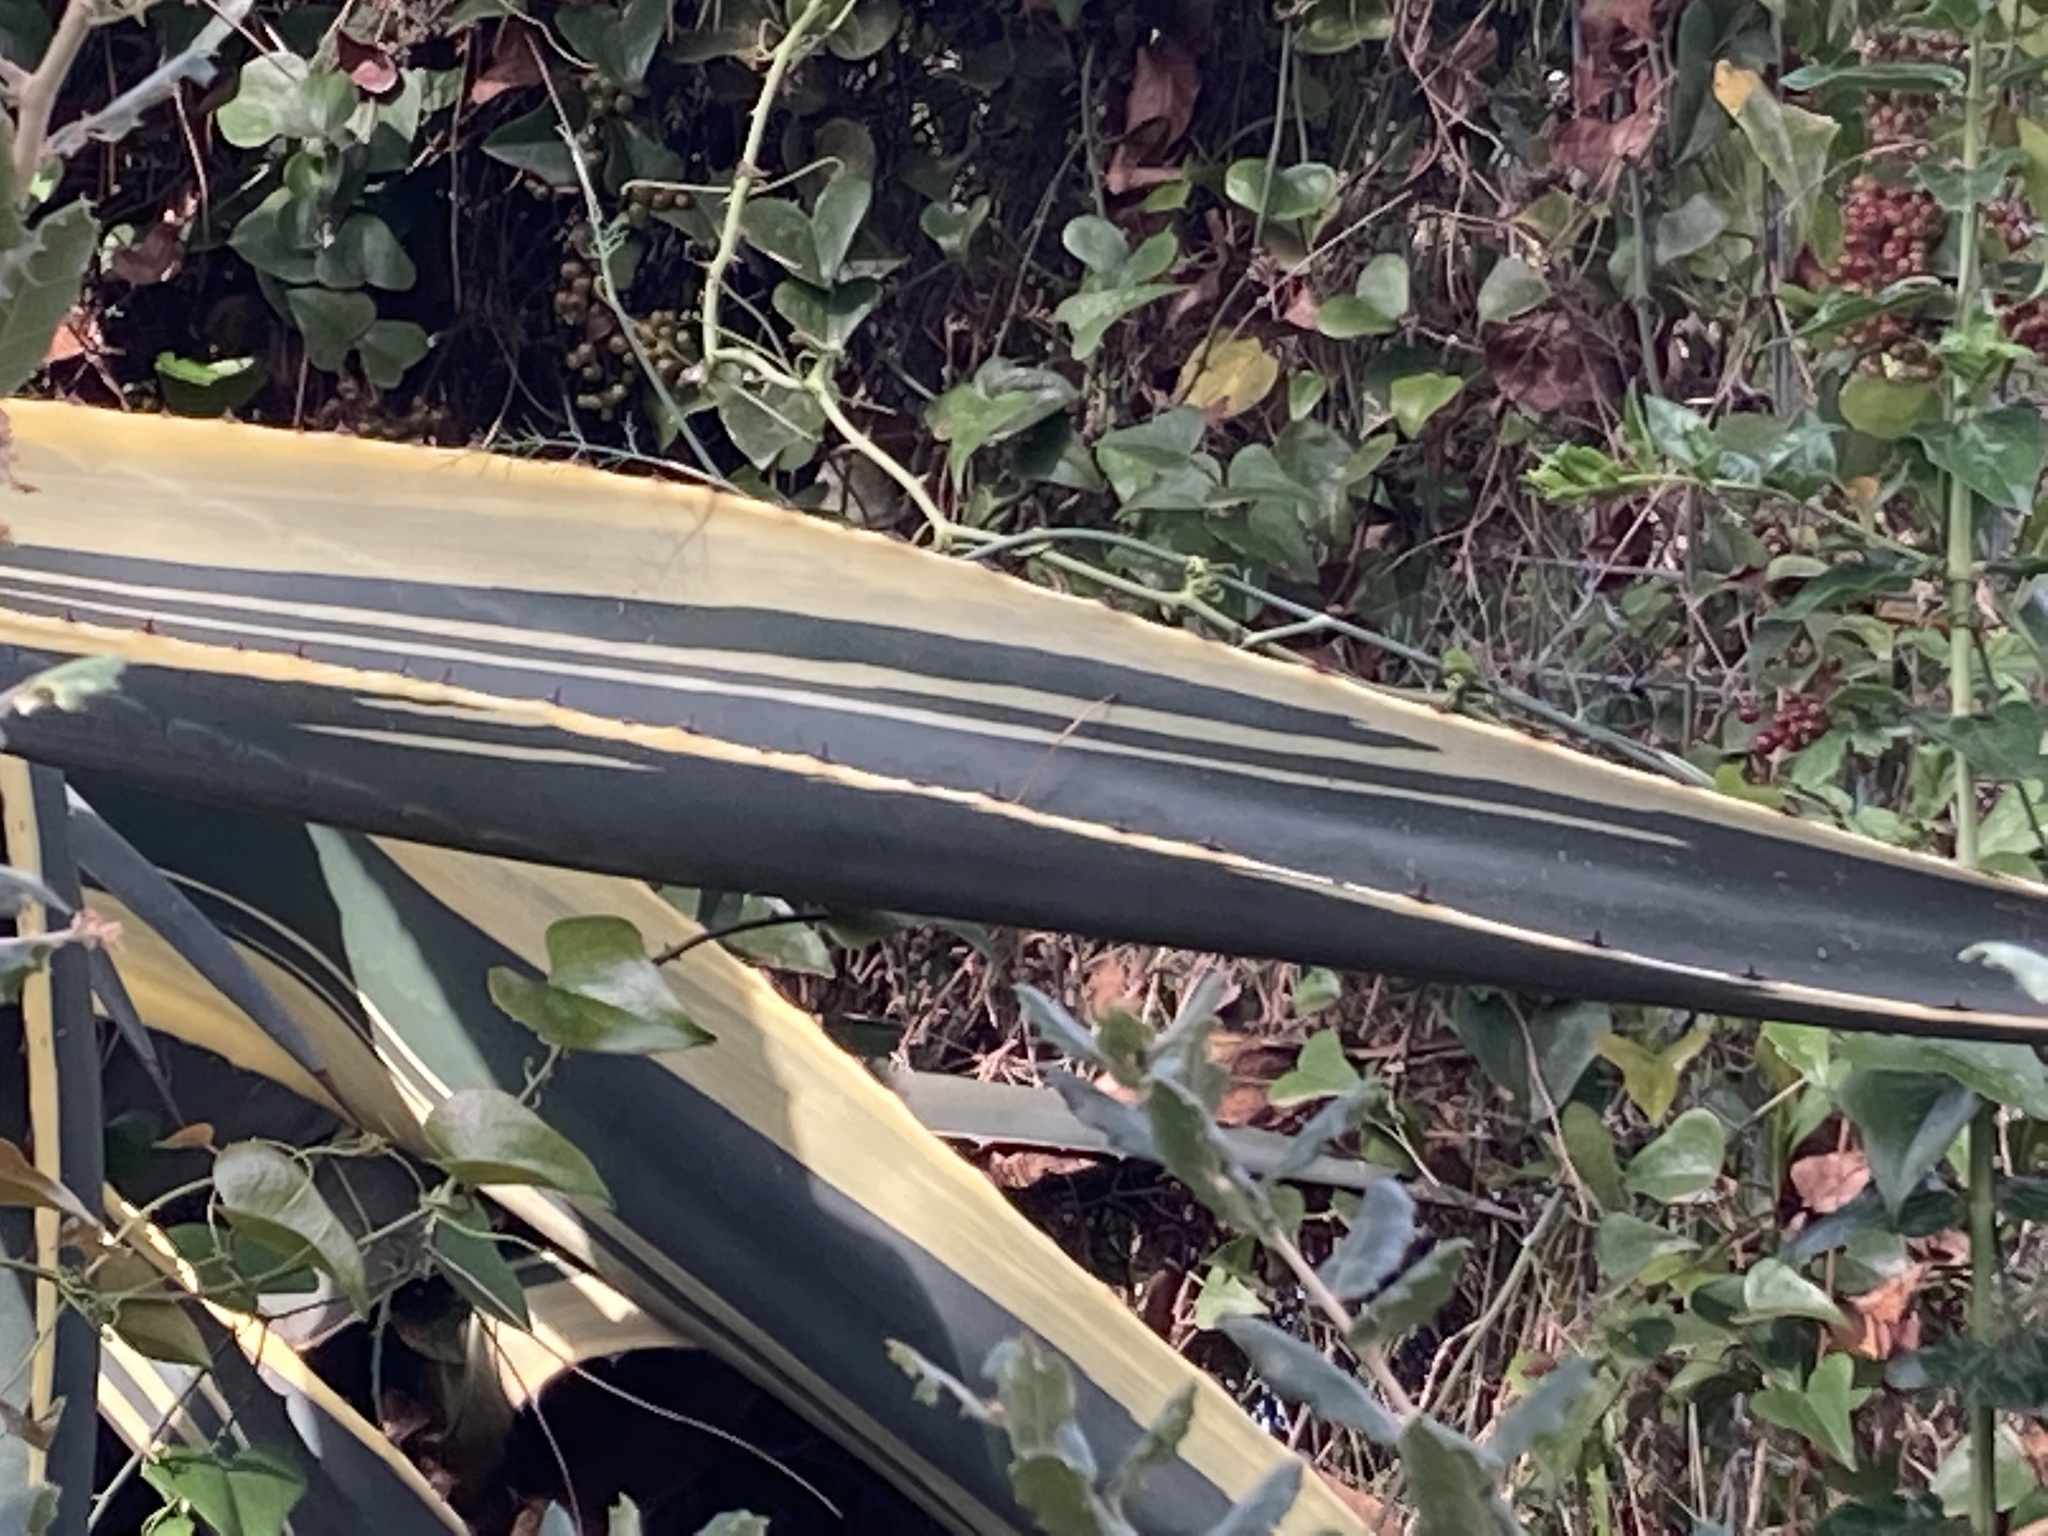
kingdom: Plantae
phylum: Tracheophyta
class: Liliopsida
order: Asparagales
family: Asparagaceae
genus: Agave
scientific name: Agave americana
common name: Centuryplant
